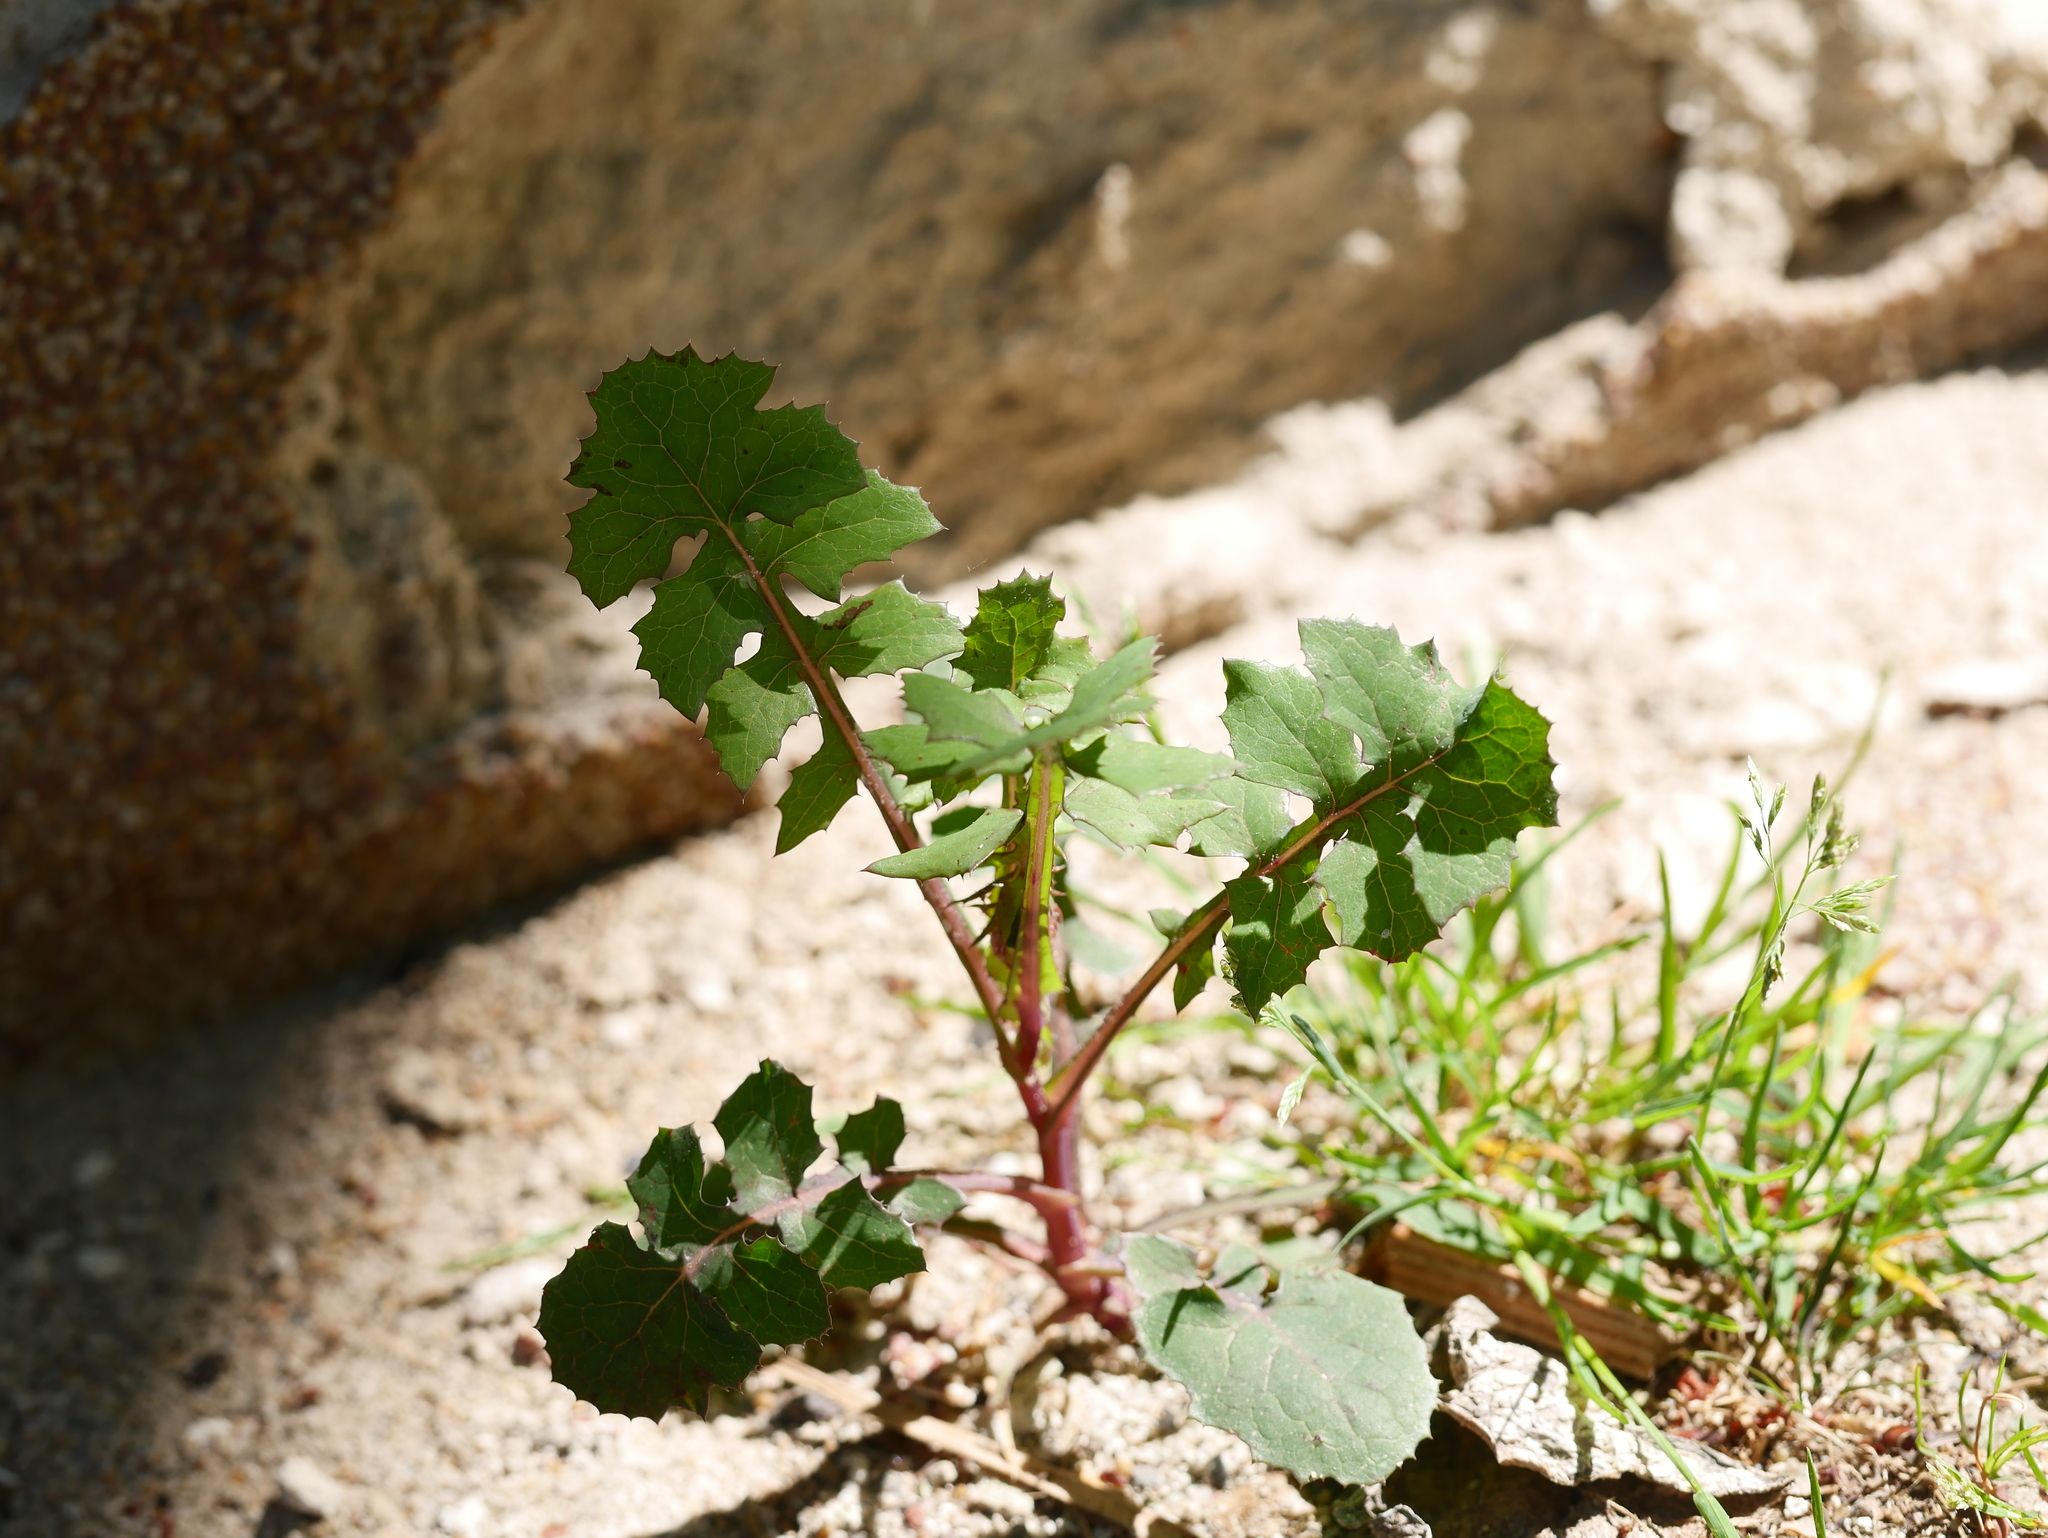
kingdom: Plantae
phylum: Tracheophyta
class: Magnoliopsida
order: Asterales
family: Asteraceae
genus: Sonchus
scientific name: Sonchus oleraceus
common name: Common sowthistle
